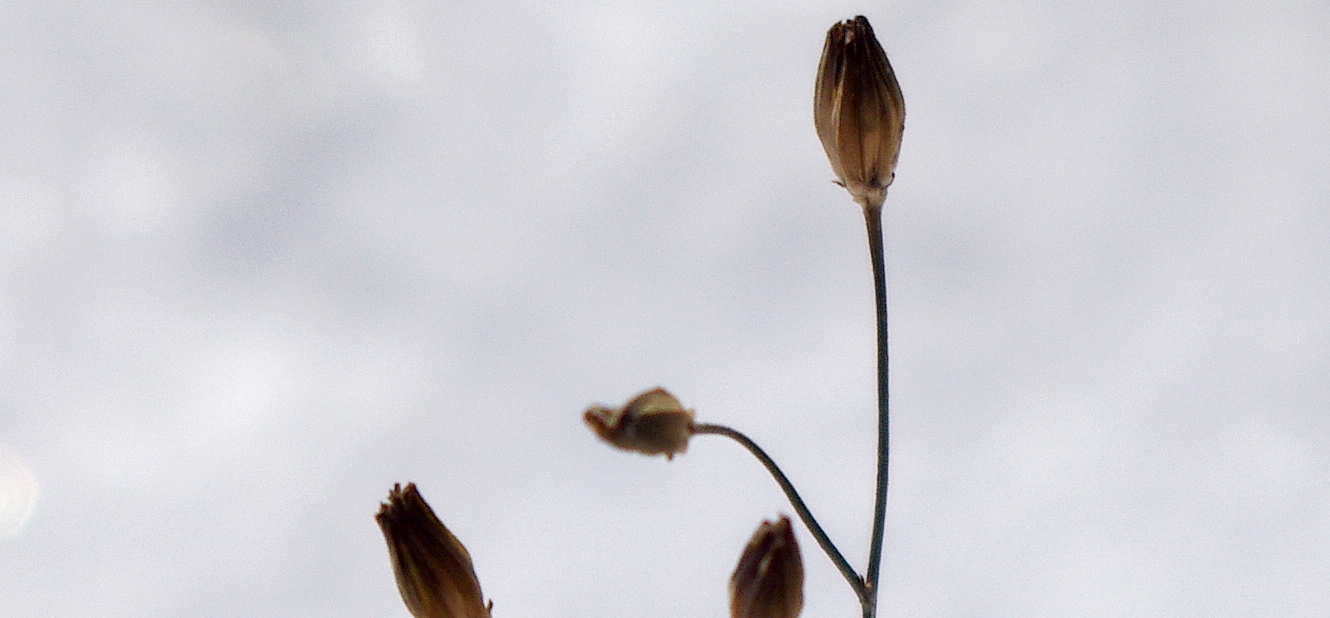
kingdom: Plantae
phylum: Tracheophyta
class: Magnoliopsida
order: Asterales
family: Asteraceae
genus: Lapsana
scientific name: Lapsana communis
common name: Nipplewort
